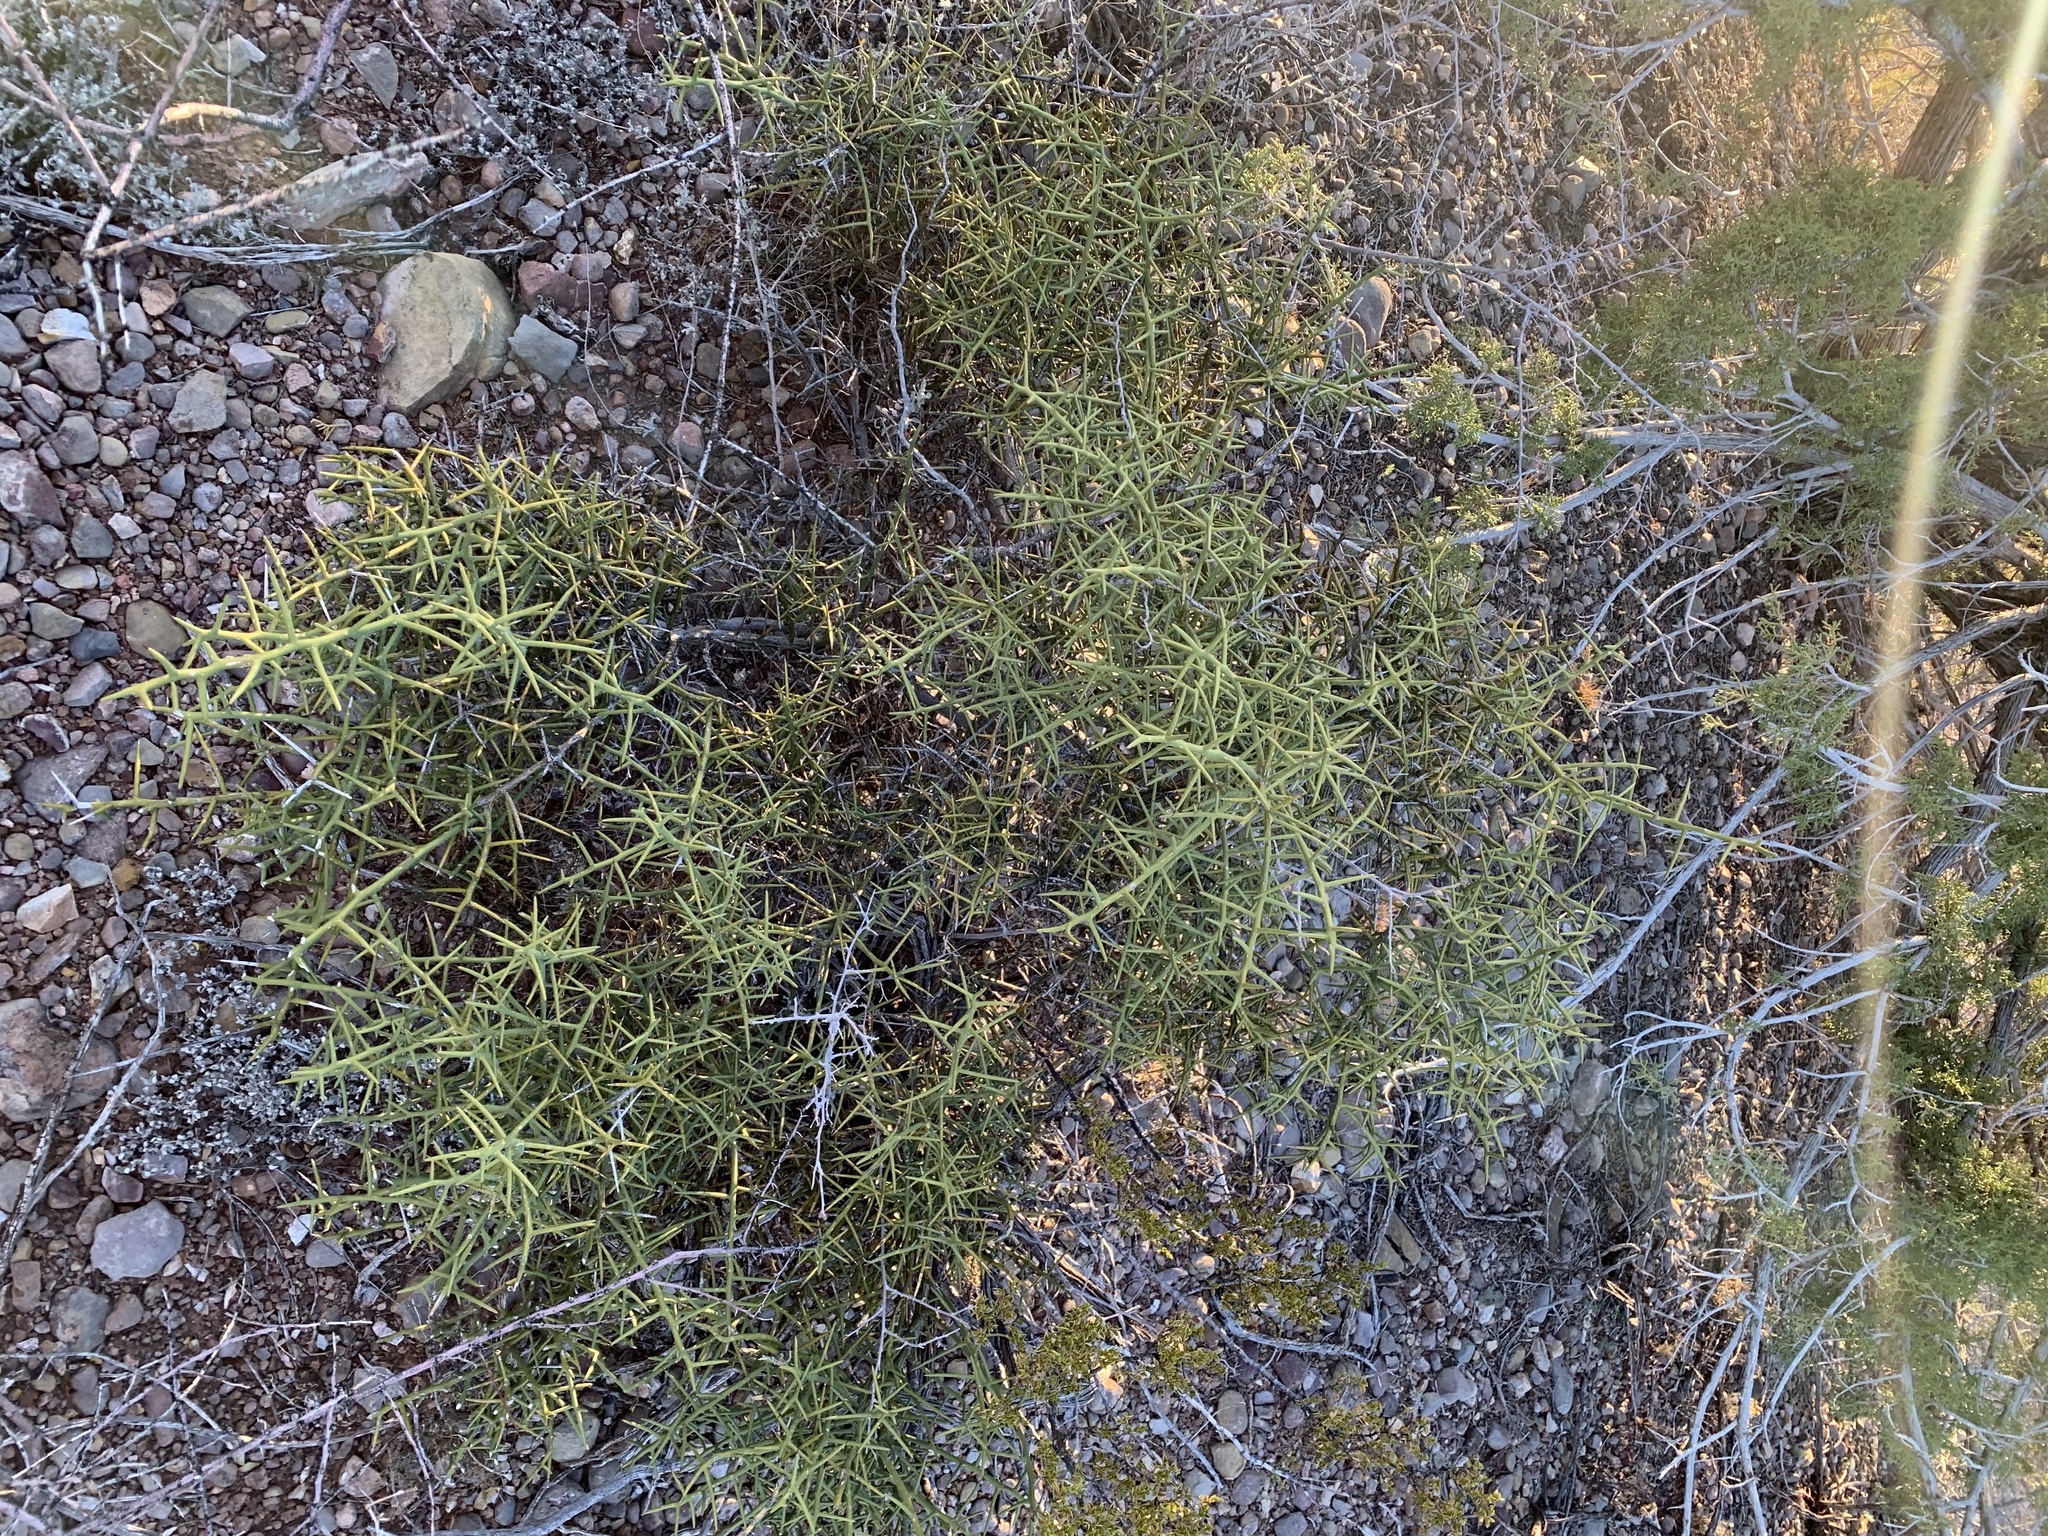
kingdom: Plantae
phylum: Tracheophyta
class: Magnoliopsida
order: Brassicales
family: Koeberliniaceae
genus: Koeberlinia
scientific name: Koeberlinia spinosa
